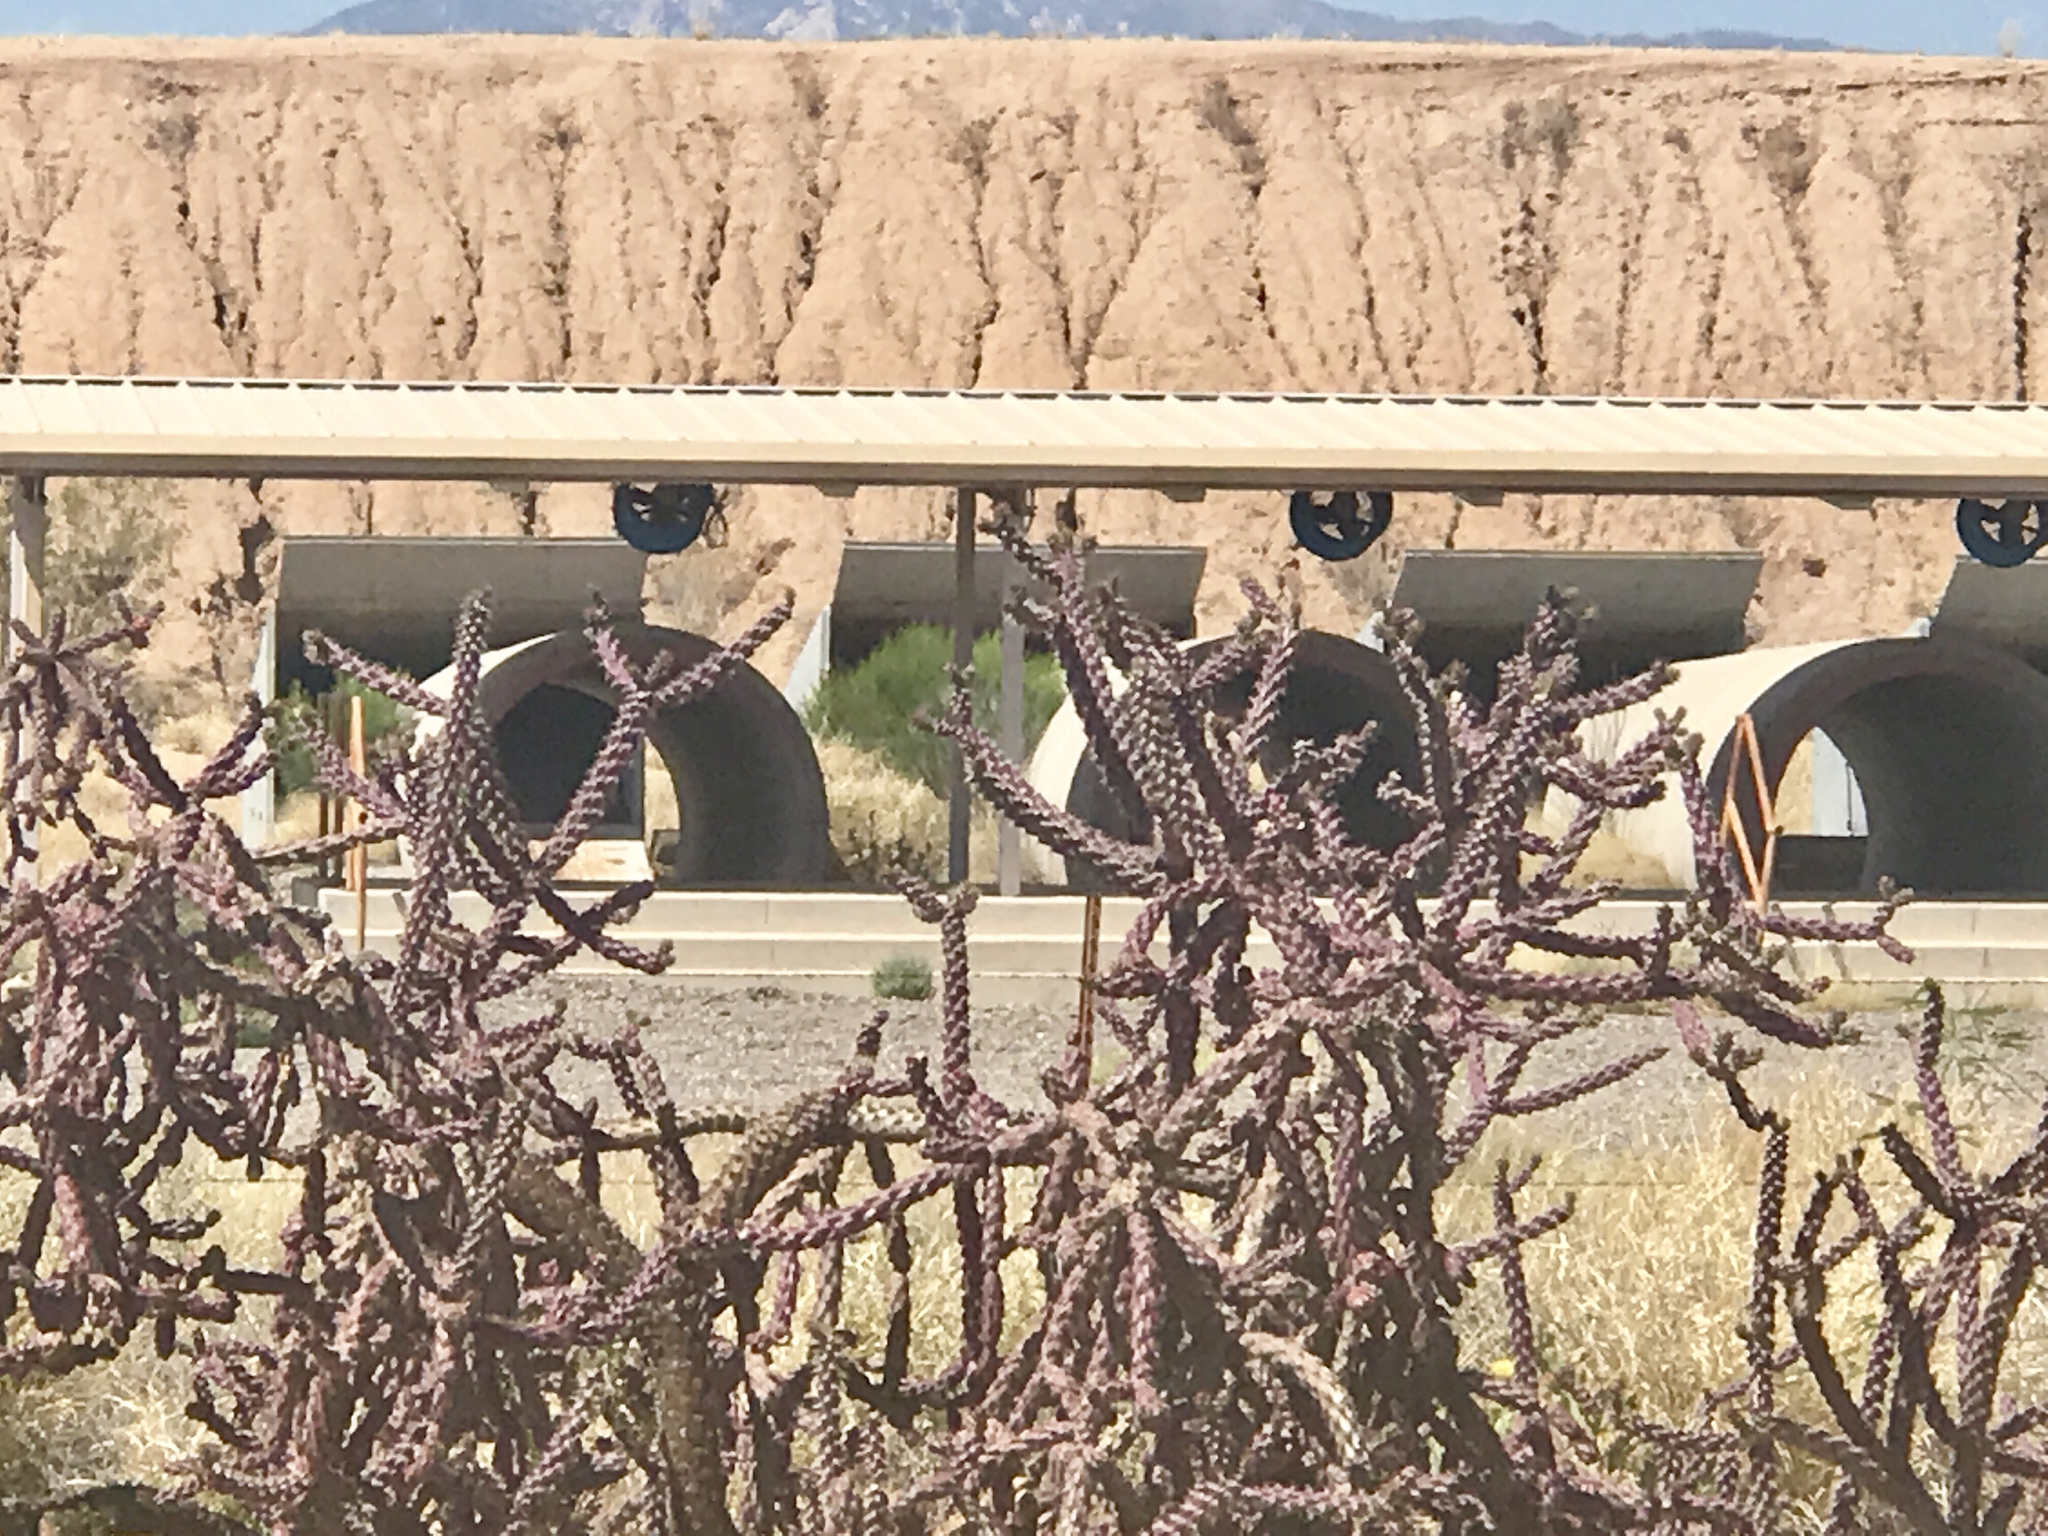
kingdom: Plantae
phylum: Tracheophyta
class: Magnoliopsida
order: Caryophyllales
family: Cactaceae
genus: Cylindropuntia
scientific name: Cylindropuntia thurberi
